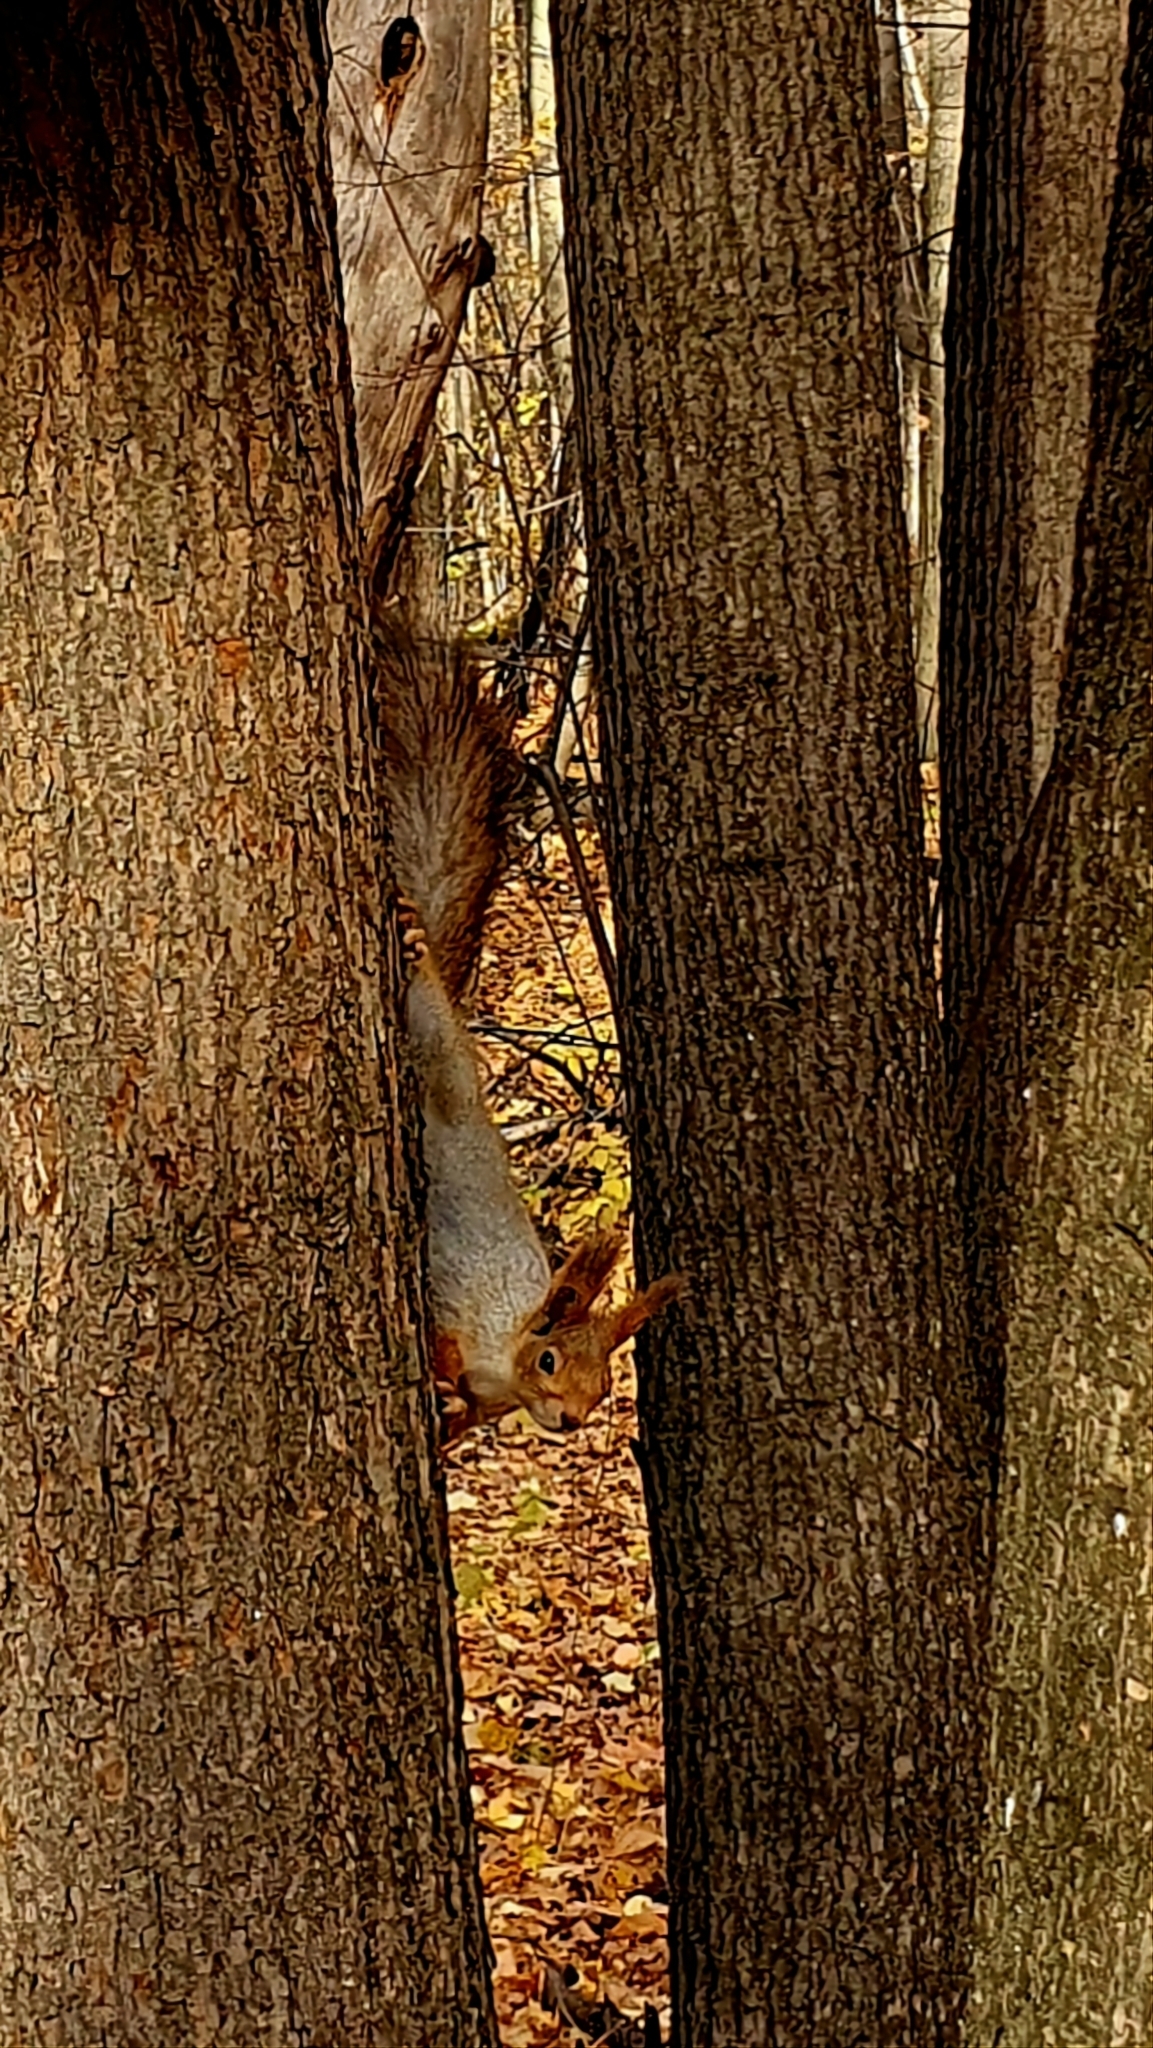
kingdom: Animalia
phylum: Chordata
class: Mammalia
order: Rodentia
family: Sciuridae
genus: Sciurus
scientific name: Sciurus vulgaris
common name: Eurasian red squirrel
